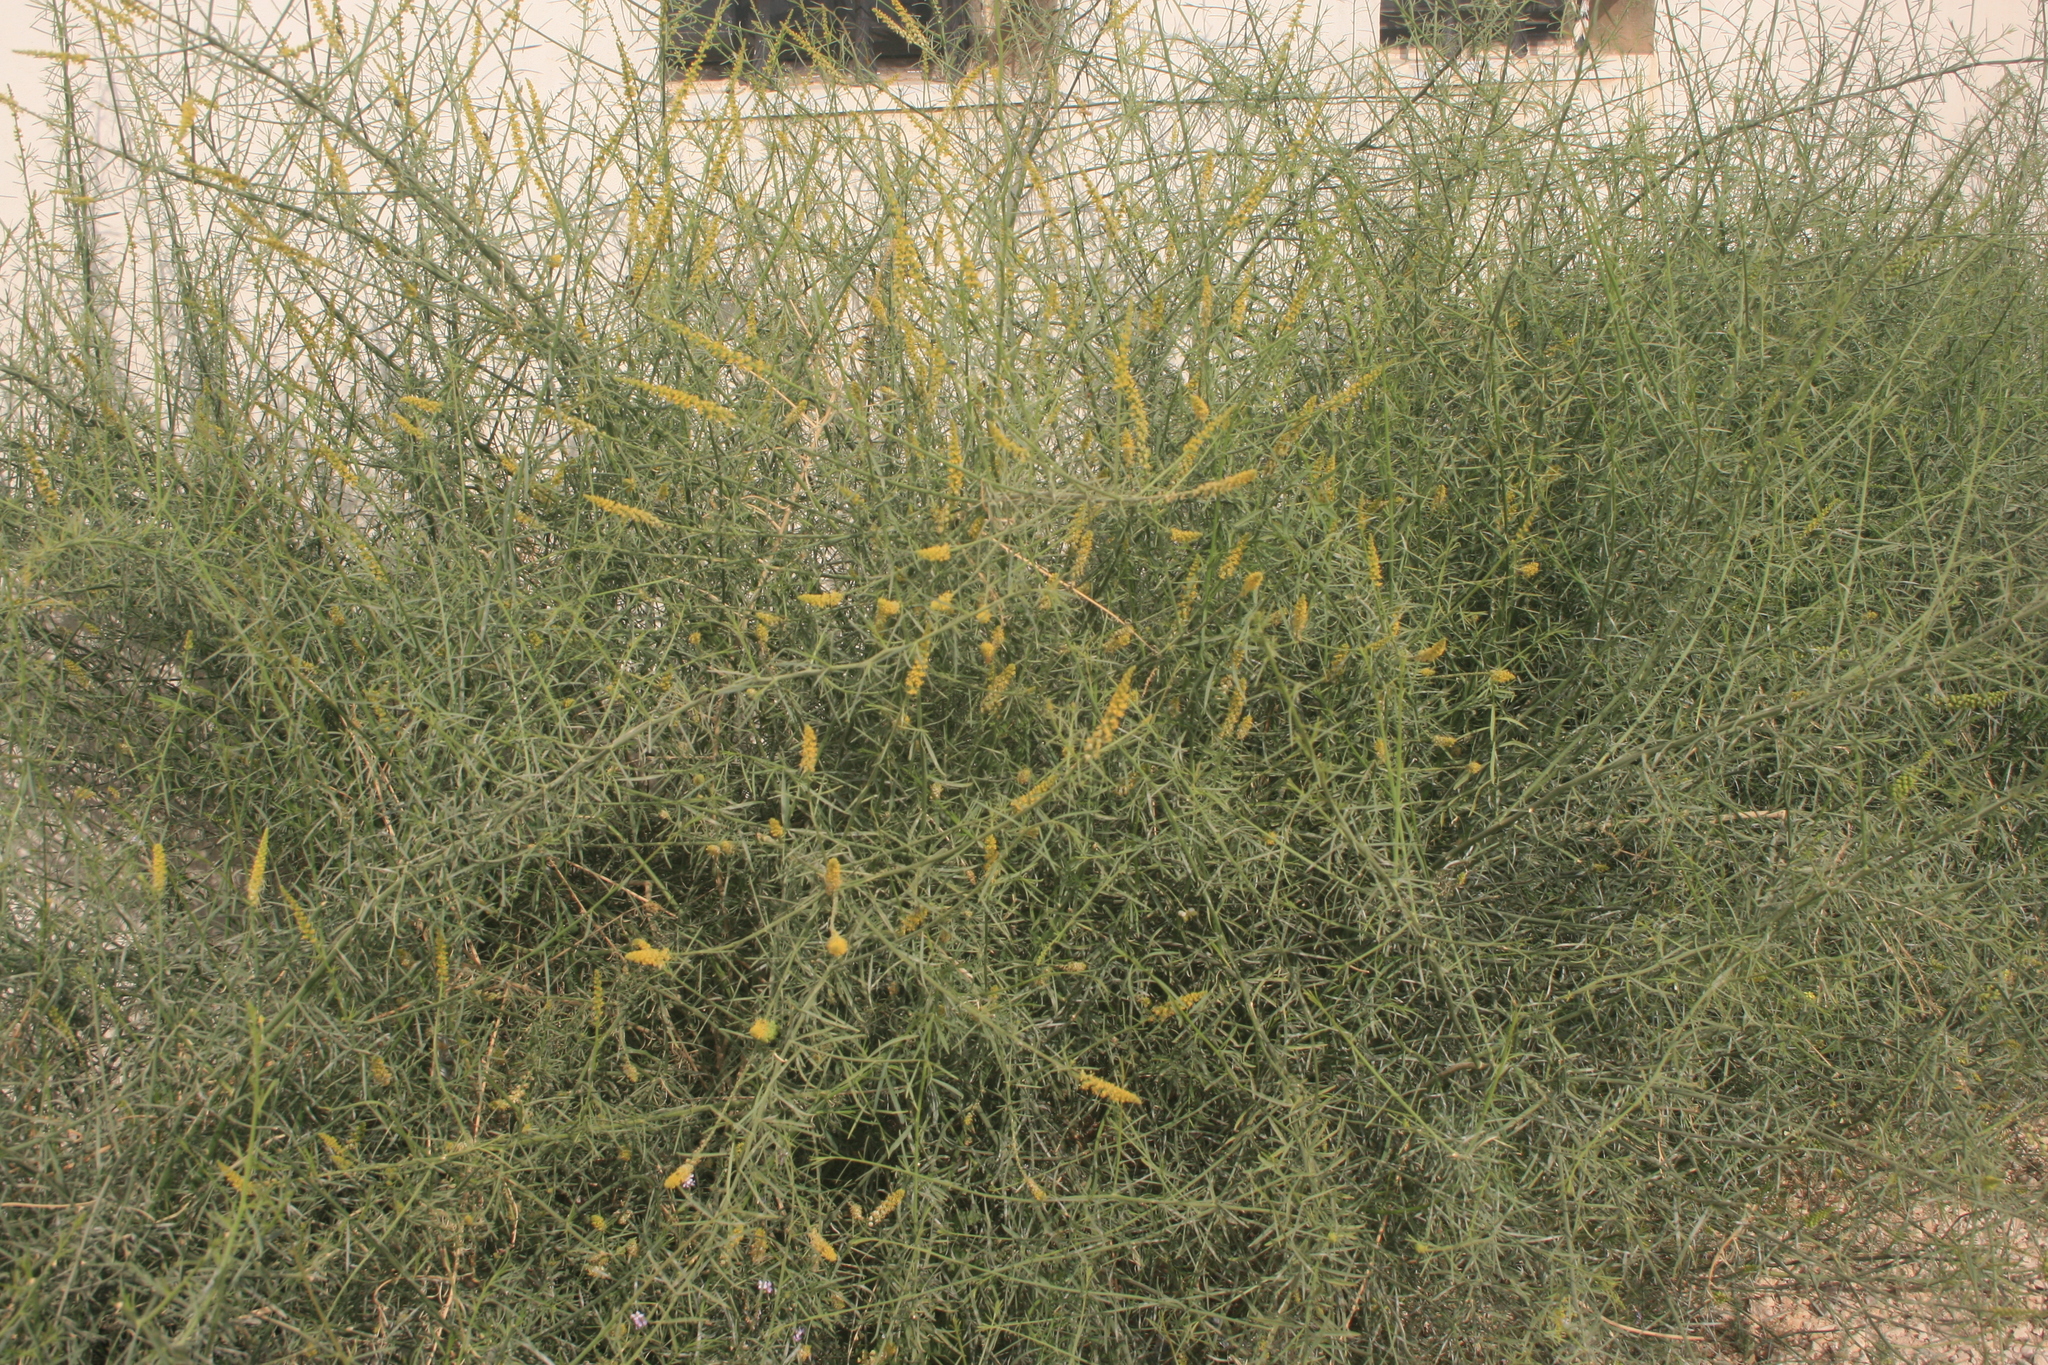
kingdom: Plantae
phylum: Tracheophyta
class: Magnoliopsida
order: Brassicales
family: Resedaceae
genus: Ochradenus
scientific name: Ochradenus baccatus
